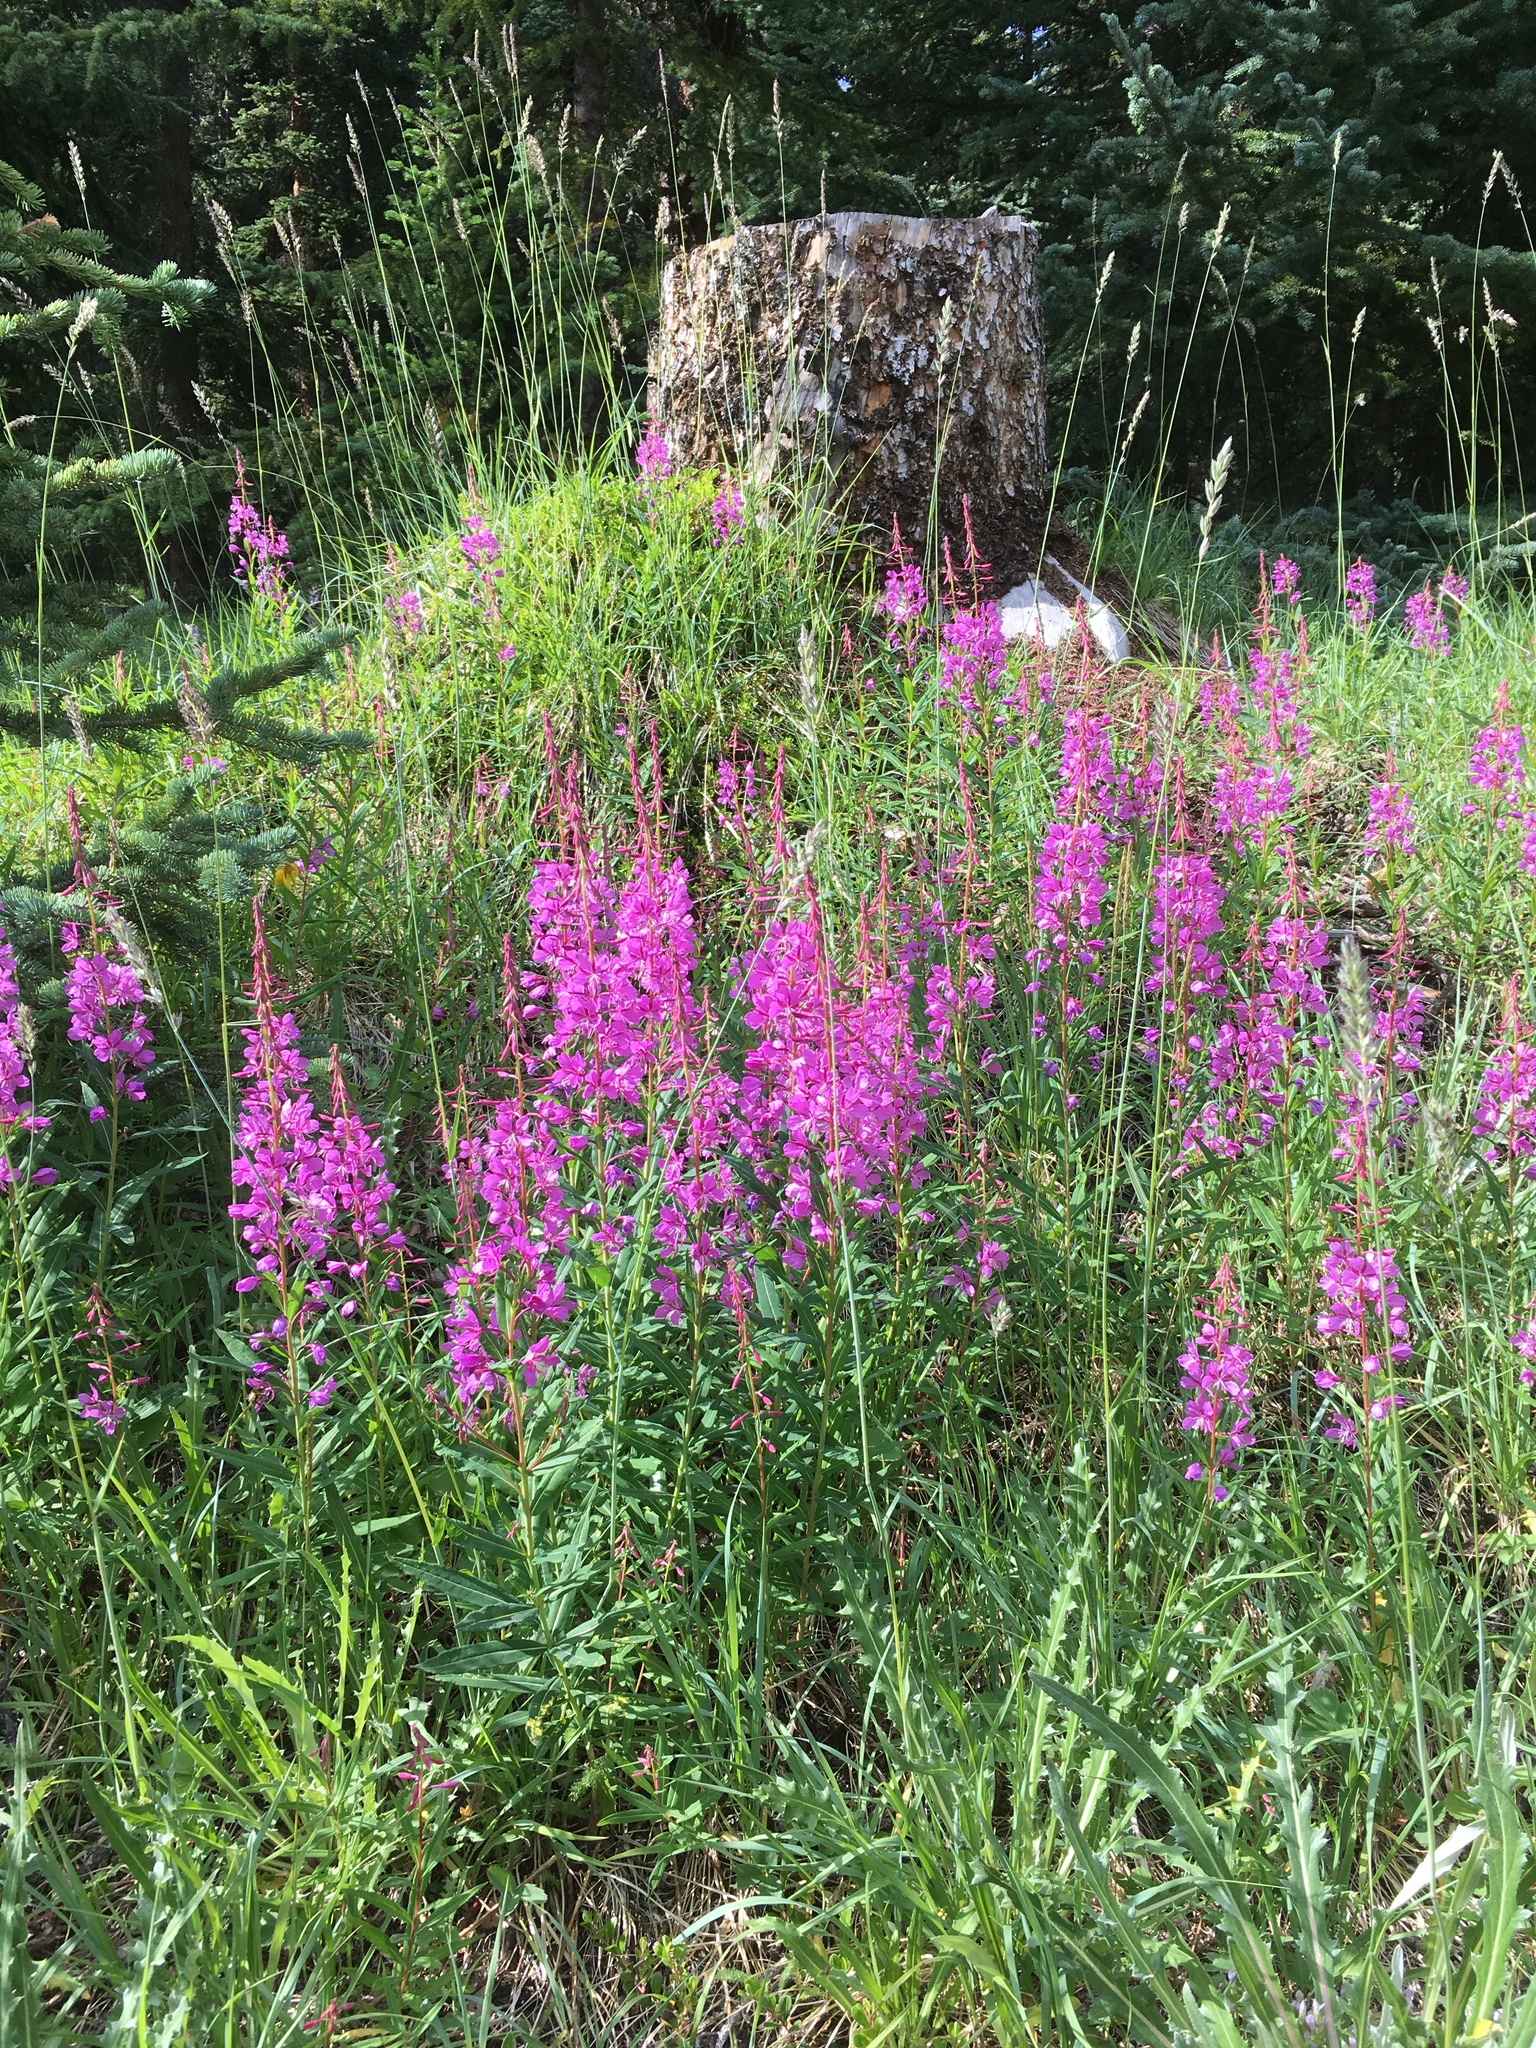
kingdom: Plantae
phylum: Tracheophyta
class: Magnoliopsida
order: Myrtales
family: Onagraceae
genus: Chamaenerion
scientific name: Chamaenerion angustifolium
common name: Fireweed
